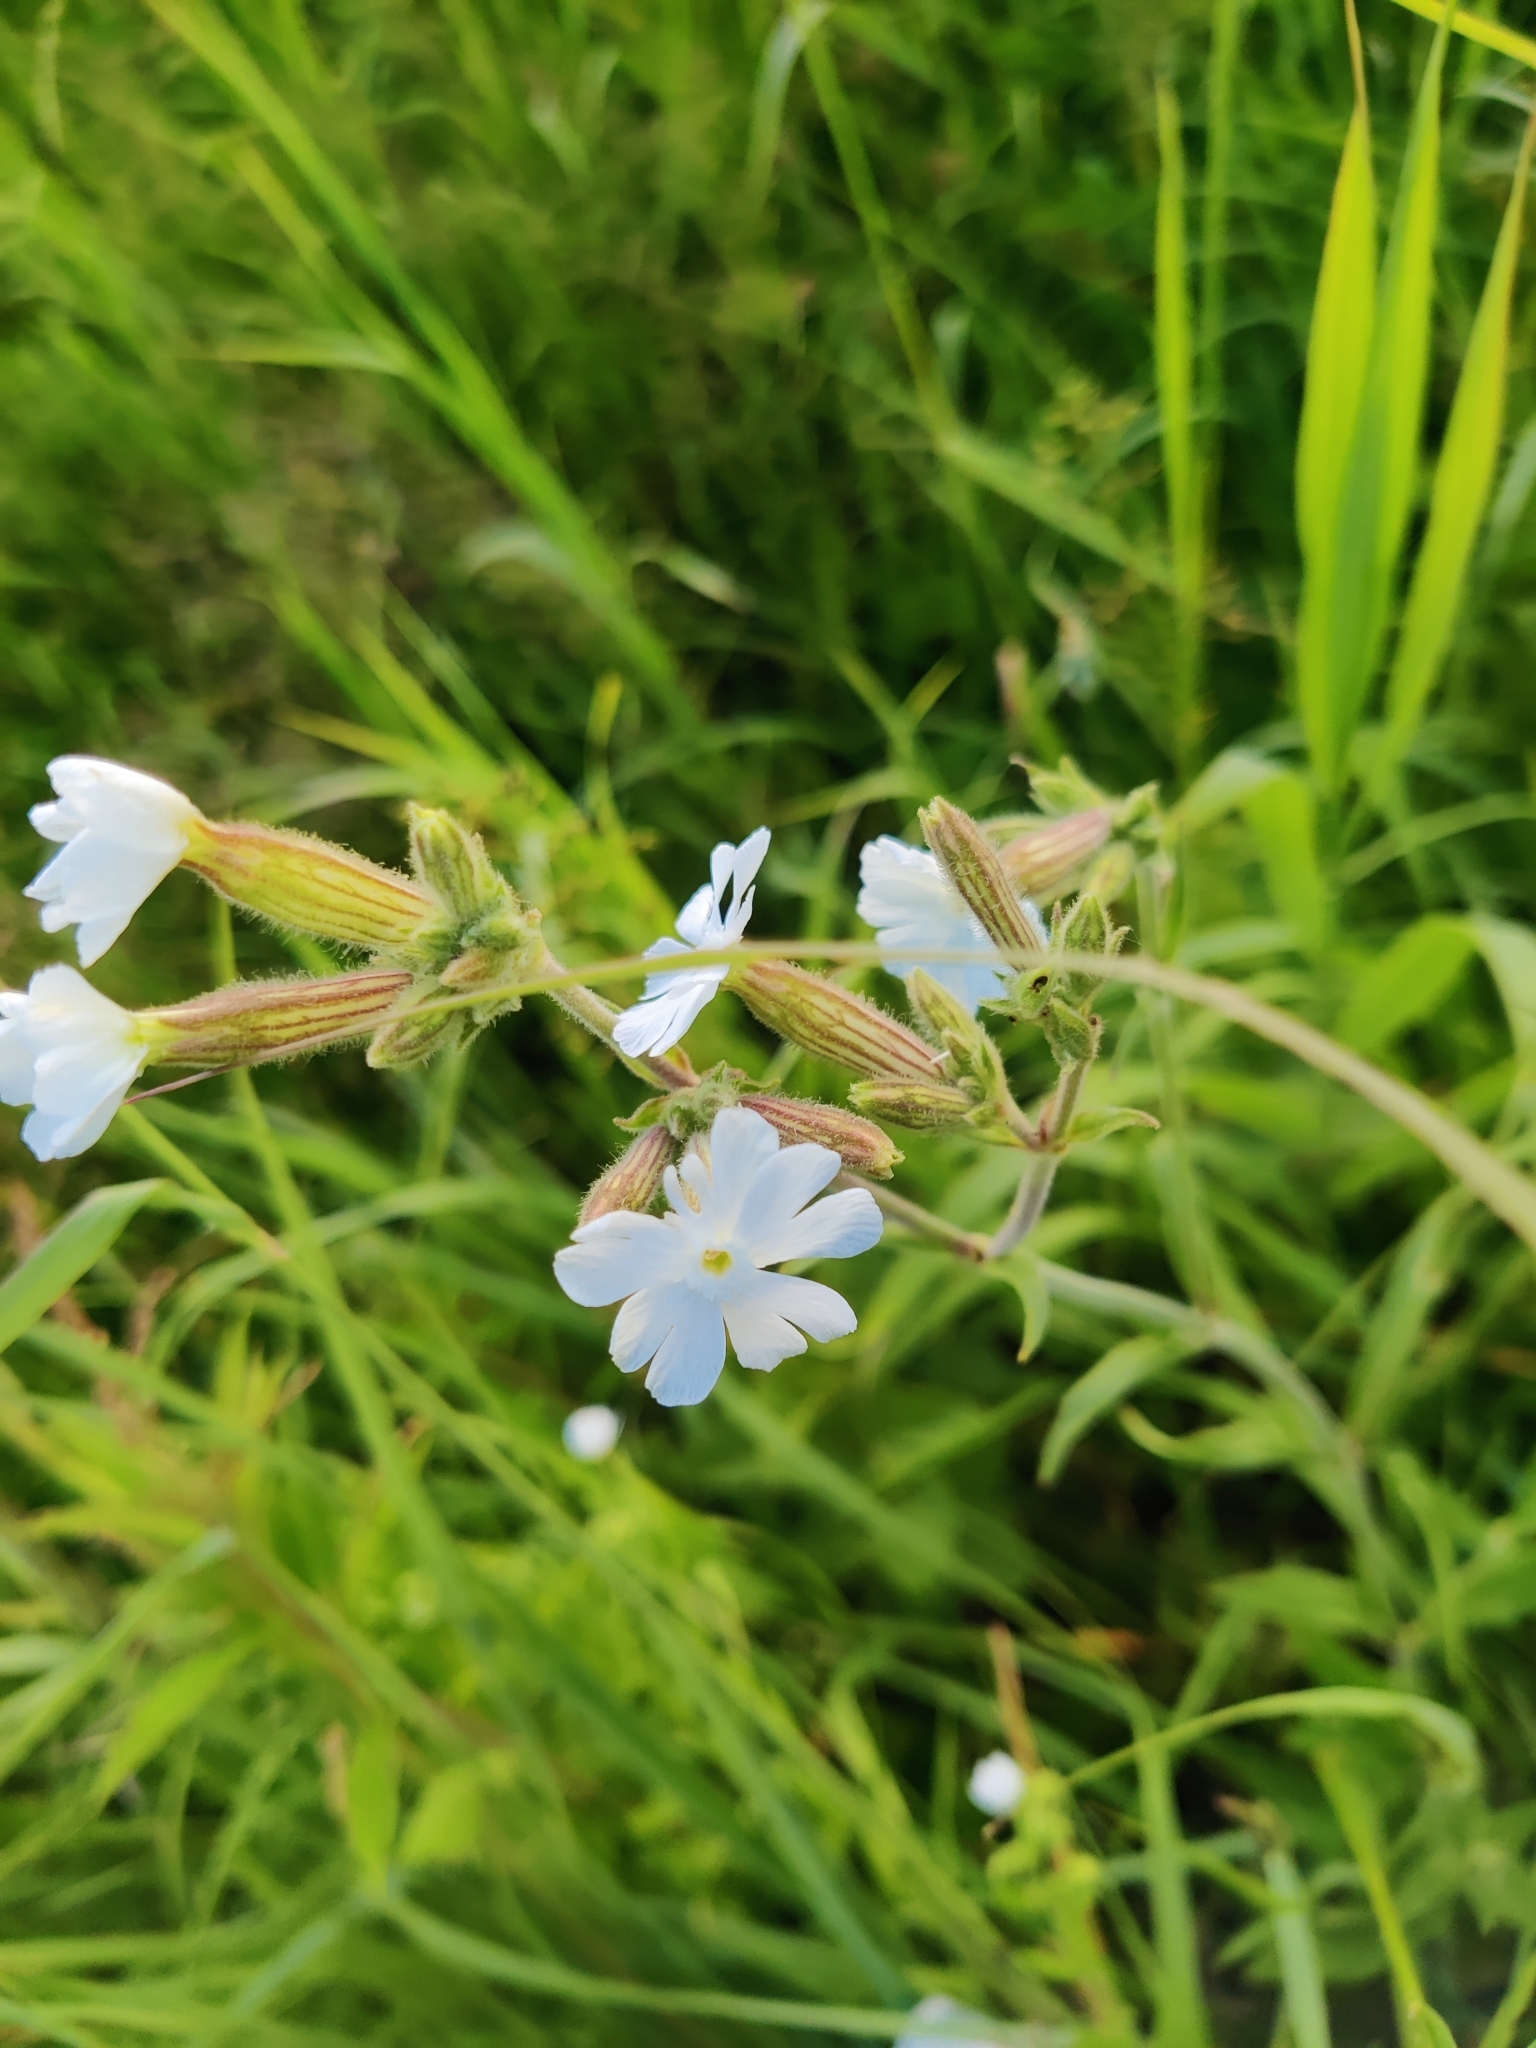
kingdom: Plantae
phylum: Tracheophyta
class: Magnoliopsida
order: Caryophyllales
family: Caryophyllaceae
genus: Silene
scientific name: Silene latifolia
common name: White campion
